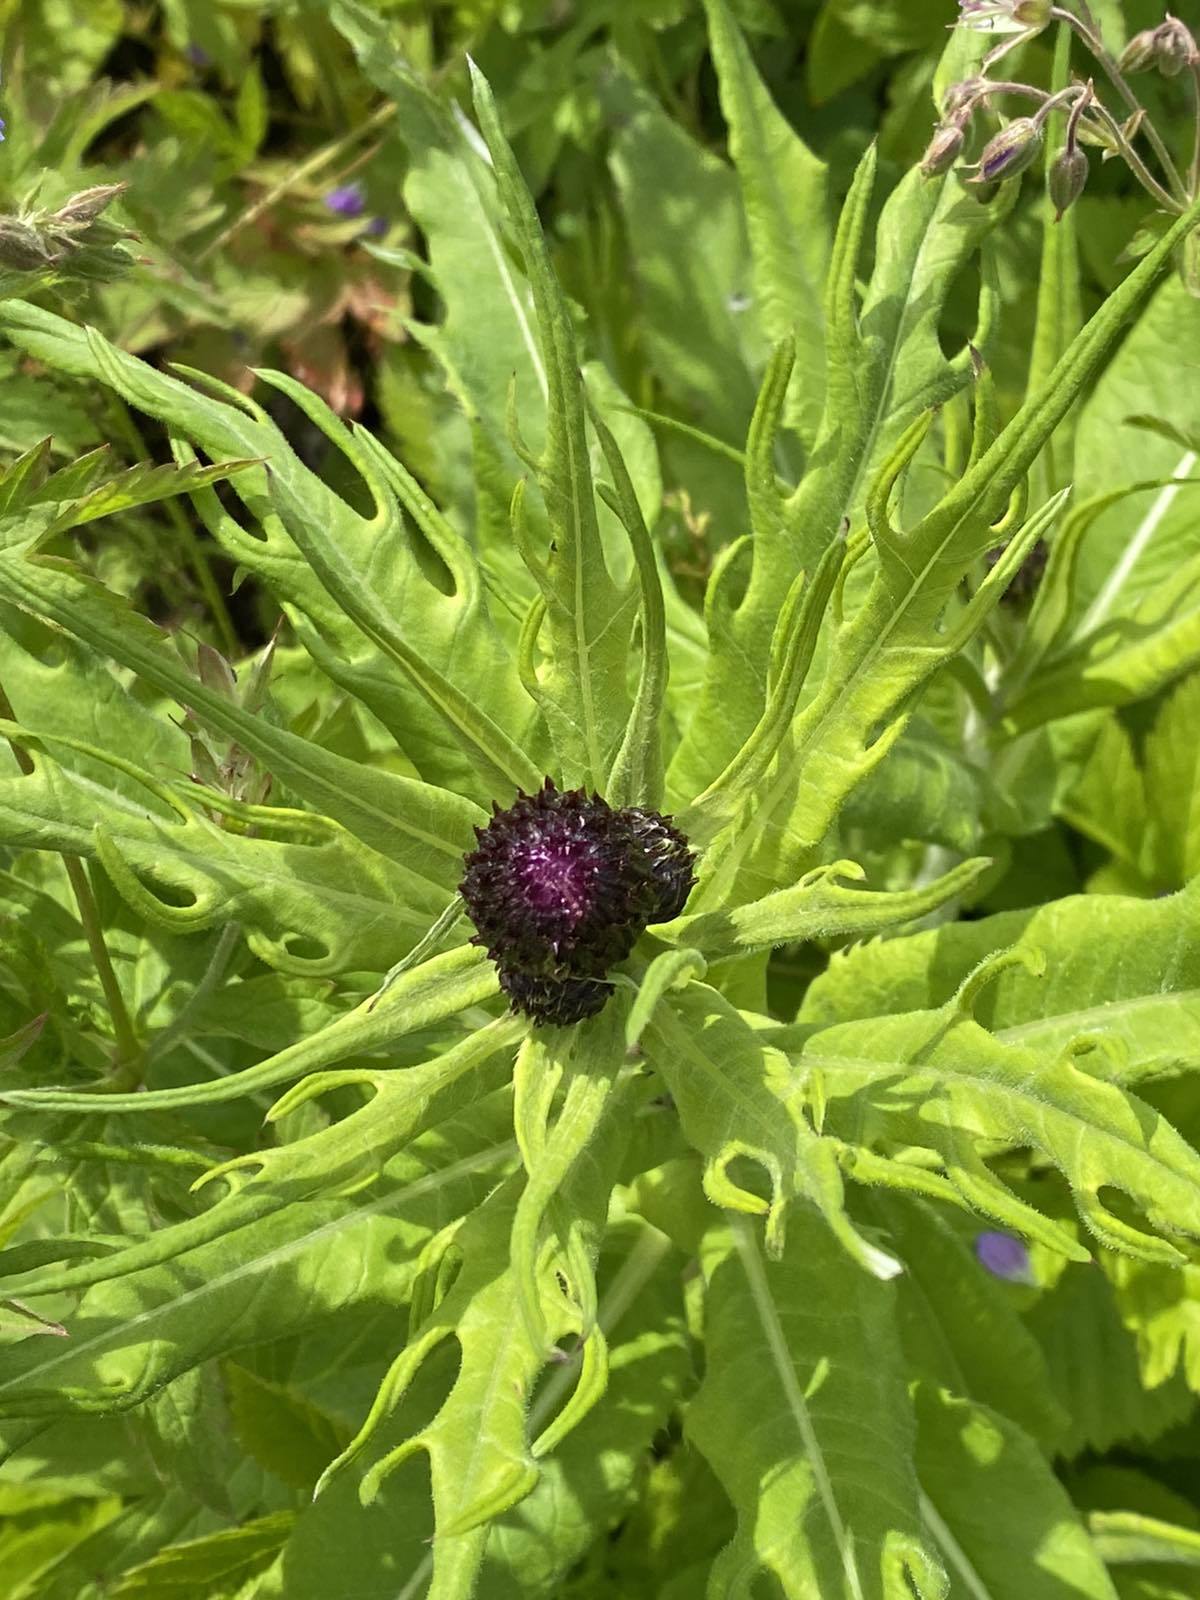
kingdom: Plantae
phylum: Tracheophyta
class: Magnoliopsida
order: Asterales
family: Asteraceae
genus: Cirsium
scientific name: Cirsium heterophyllum
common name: Melancholy thistle
